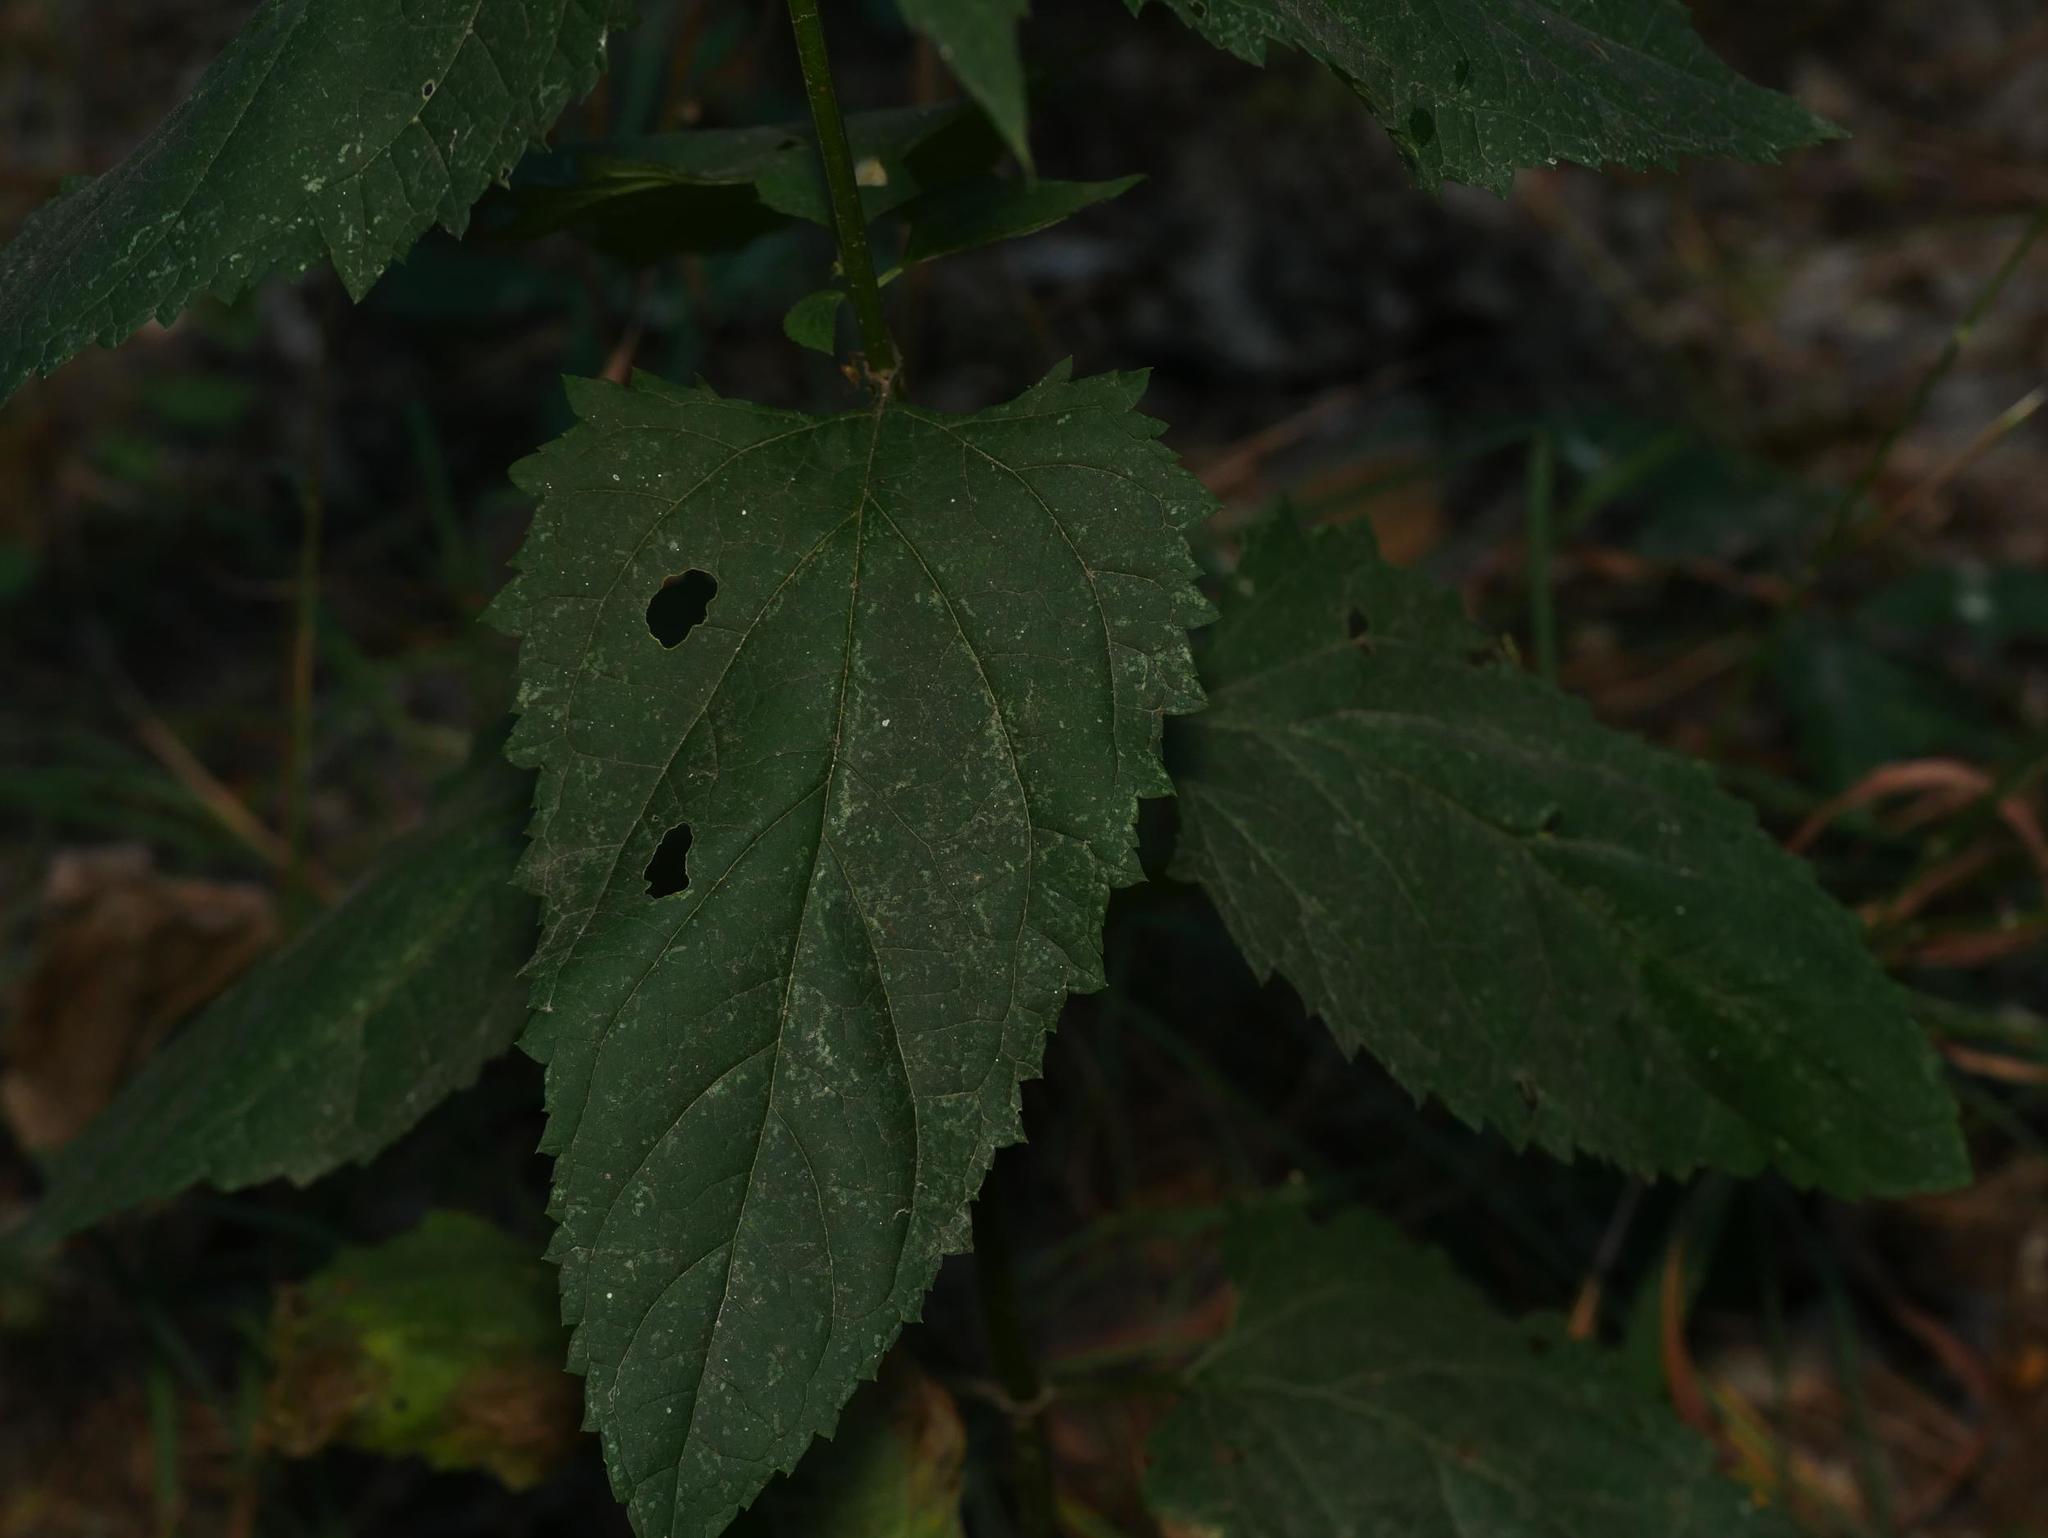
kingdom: Plantae
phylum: Tracheophyta
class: Magnoliopsida
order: Lamiales
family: Scrophulariaceae
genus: Scrophularia
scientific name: Scrophularia nodosa
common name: Common figwort
